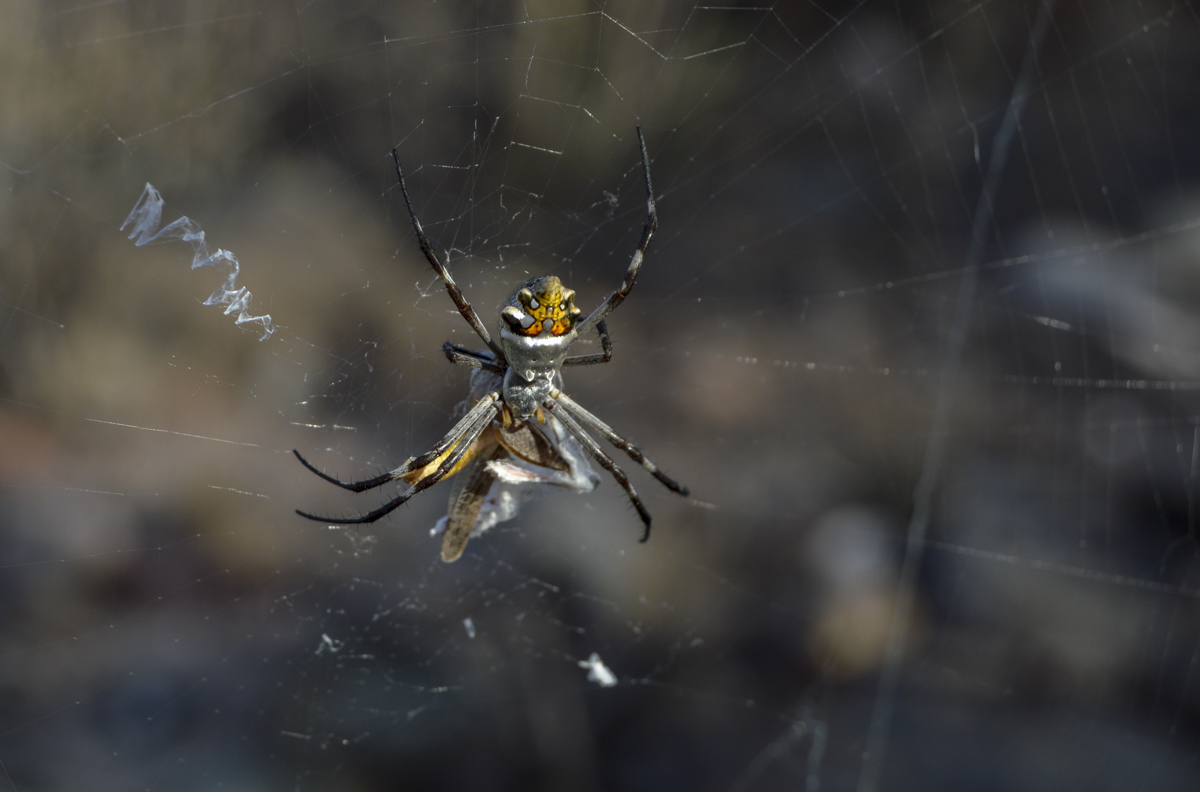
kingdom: Animalia
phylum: Arthropoda
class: Arachnida
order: Araneae
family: Araneidae
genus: Argiope
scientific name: Argiope argentata
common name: Orb weavers
